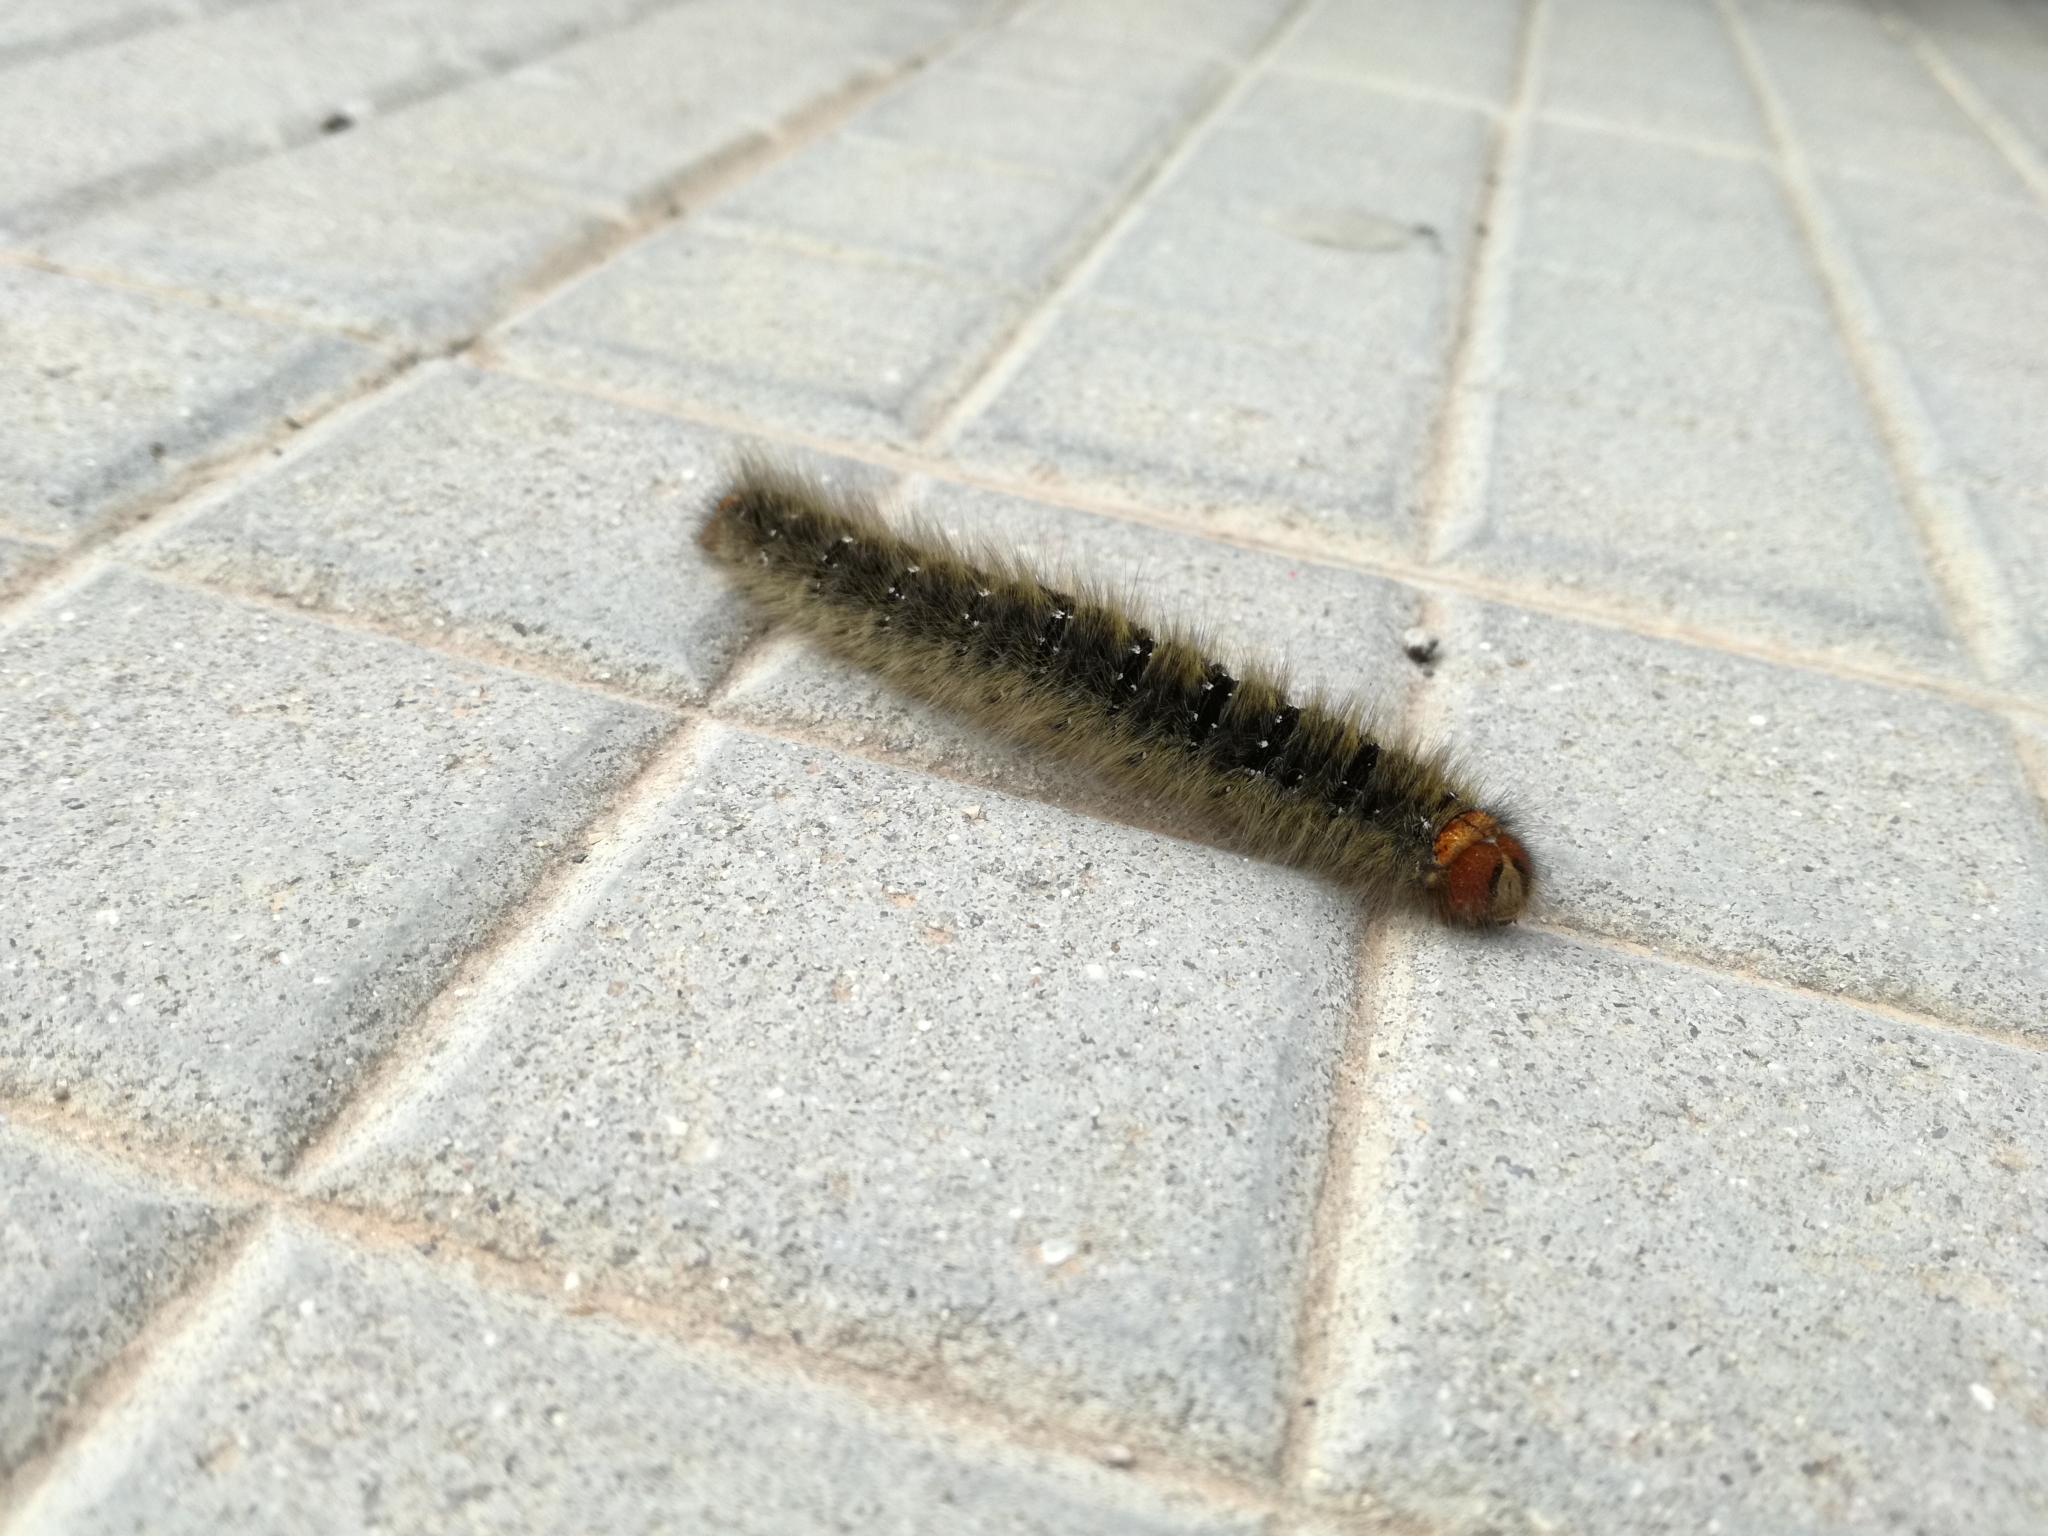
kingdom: Animalia
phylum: Arthropoda
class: Insecta
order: Lepidoptera
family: Lasiocampidae
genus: Lasiocampa
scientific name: Lasiocampa trifolii
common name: Grass eggar
